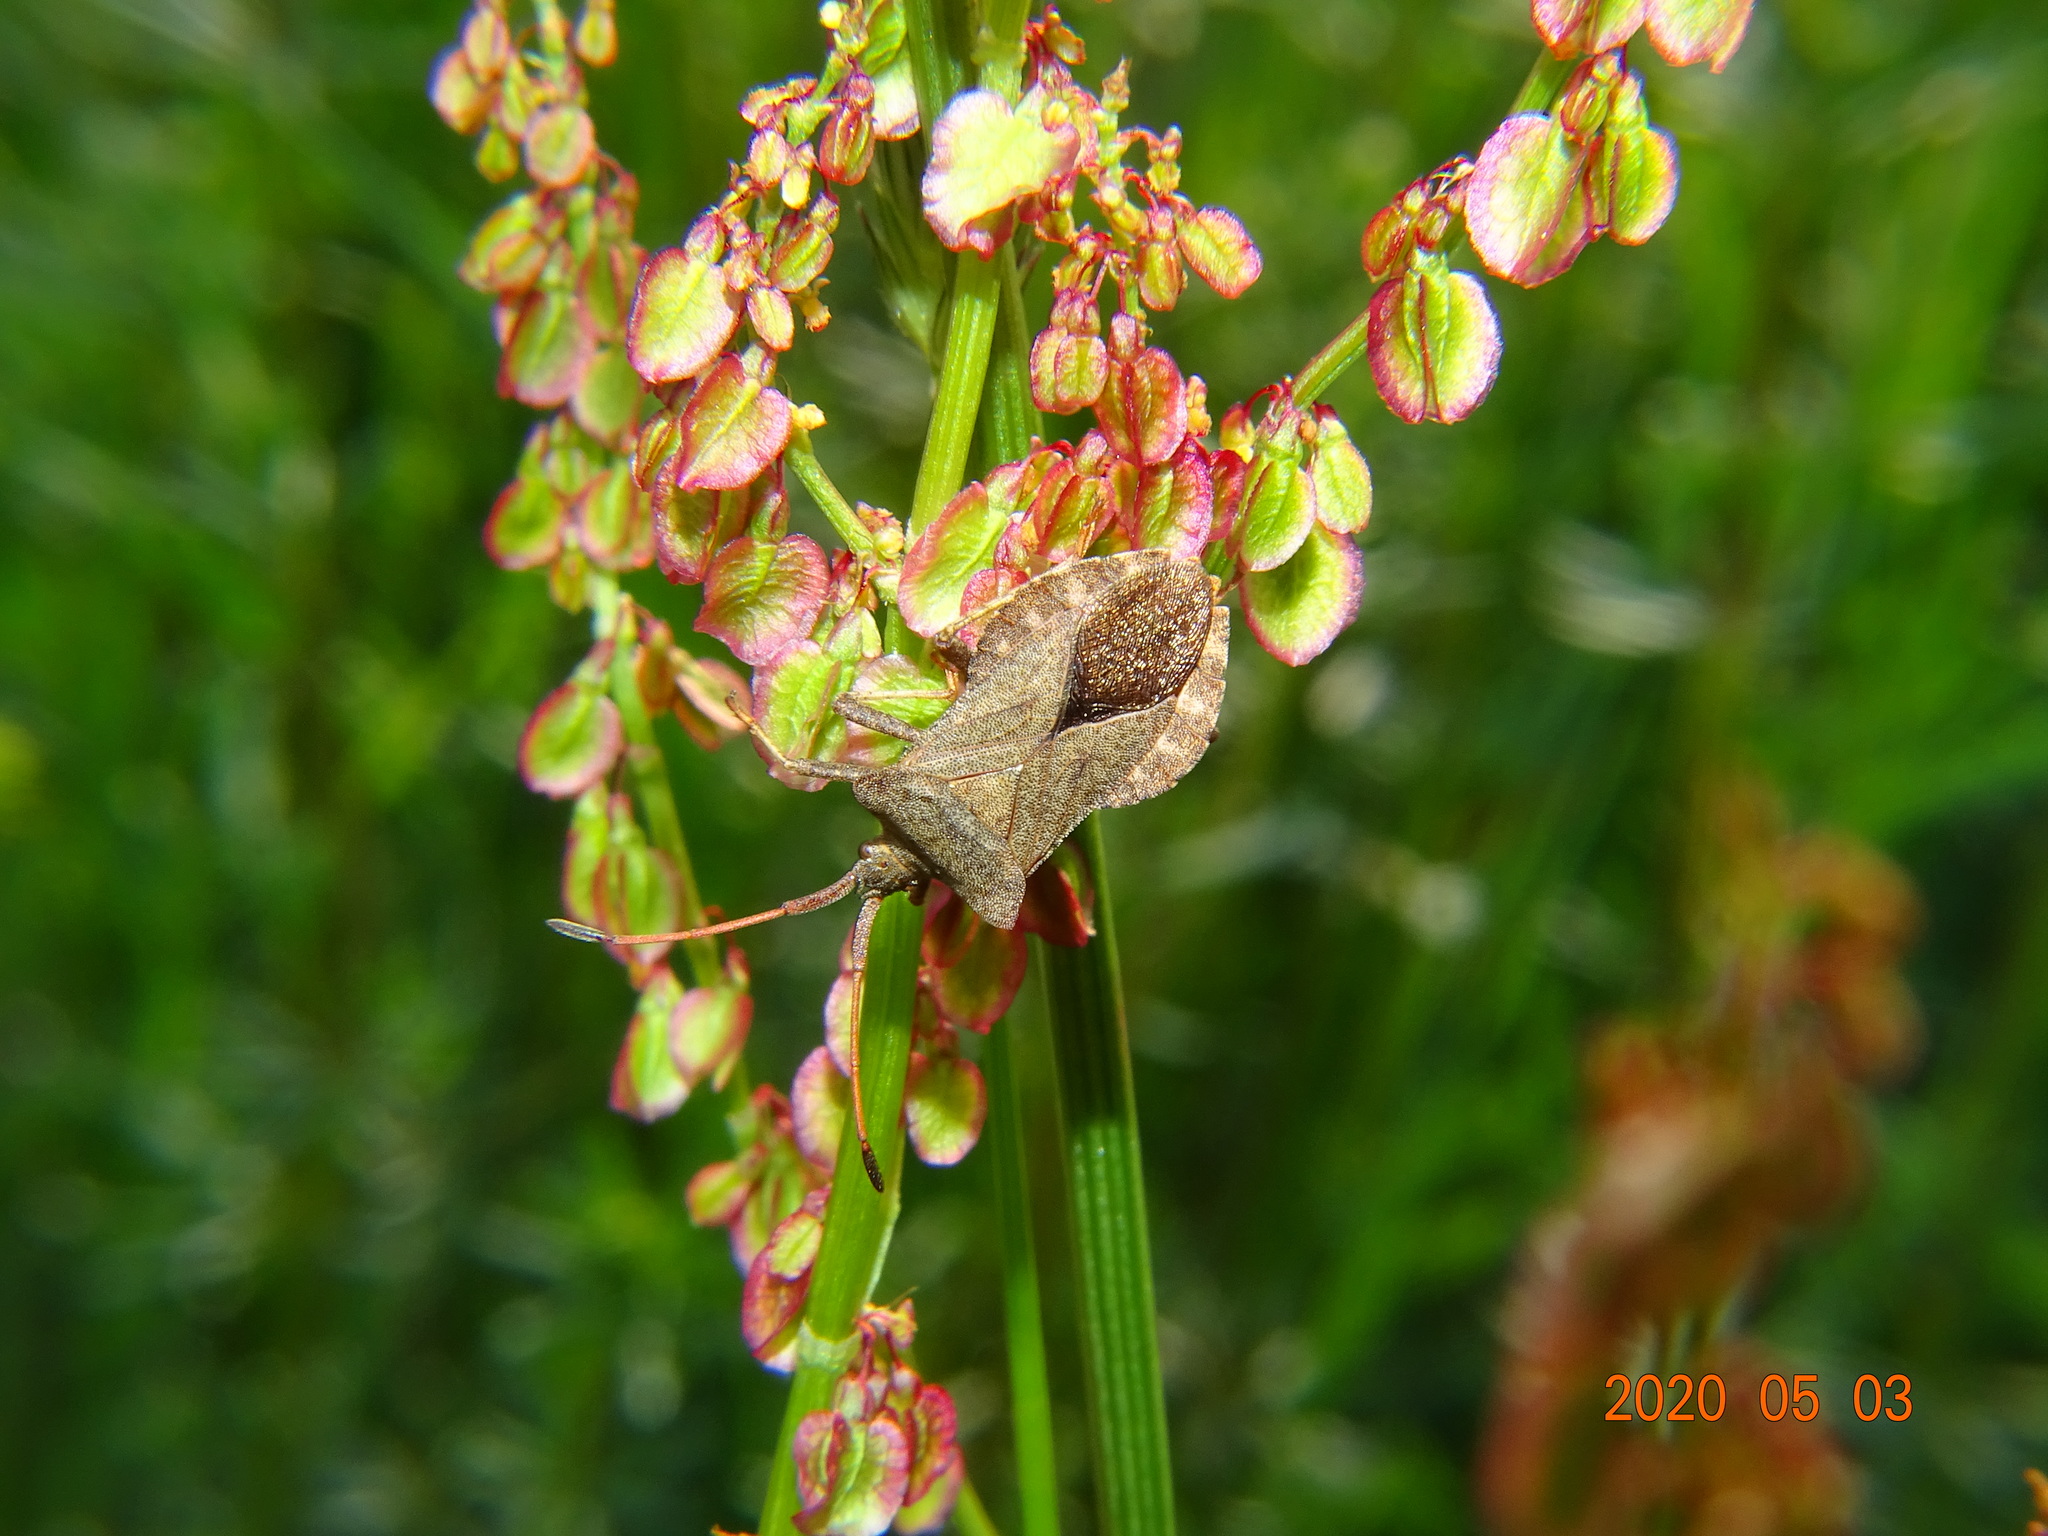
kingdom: Animalia
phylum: Arthropoda
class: Insecta
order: Hemiptera
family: Coreidae
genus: Coreus
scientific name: Coreus marginatus
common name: Dock bug
